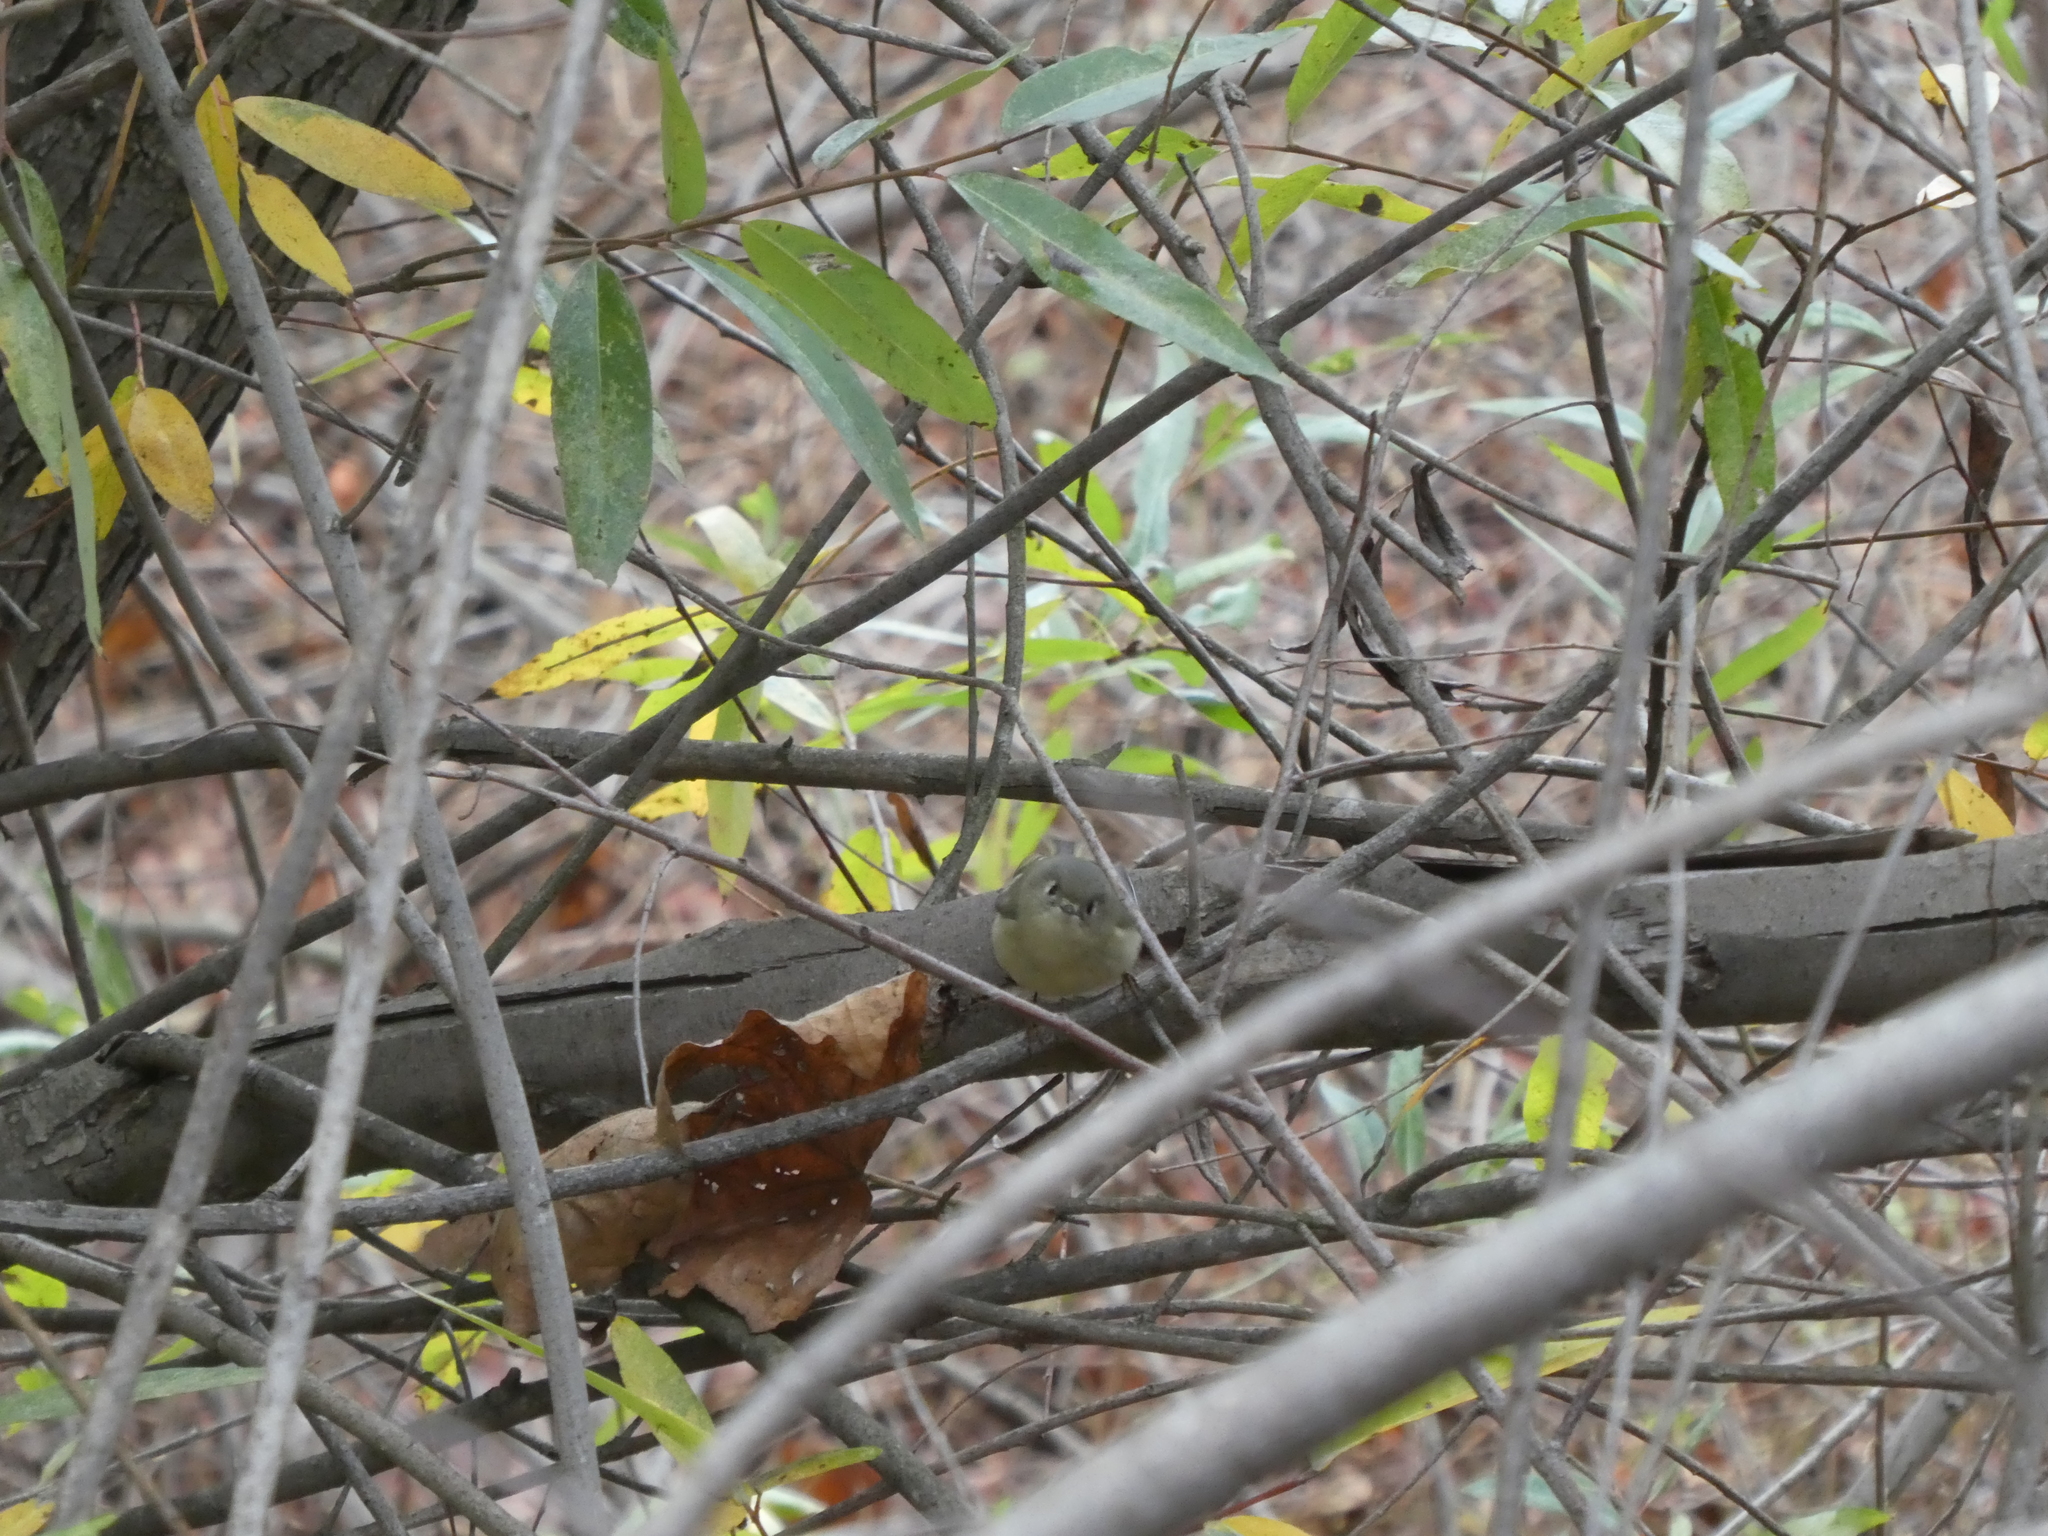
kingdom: Animalia
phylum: Chordata
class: Aves
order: Passeriformes
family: Regulidae
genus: Regulus
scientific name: Regulus calendula
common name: Ruby-crowned kinglet
